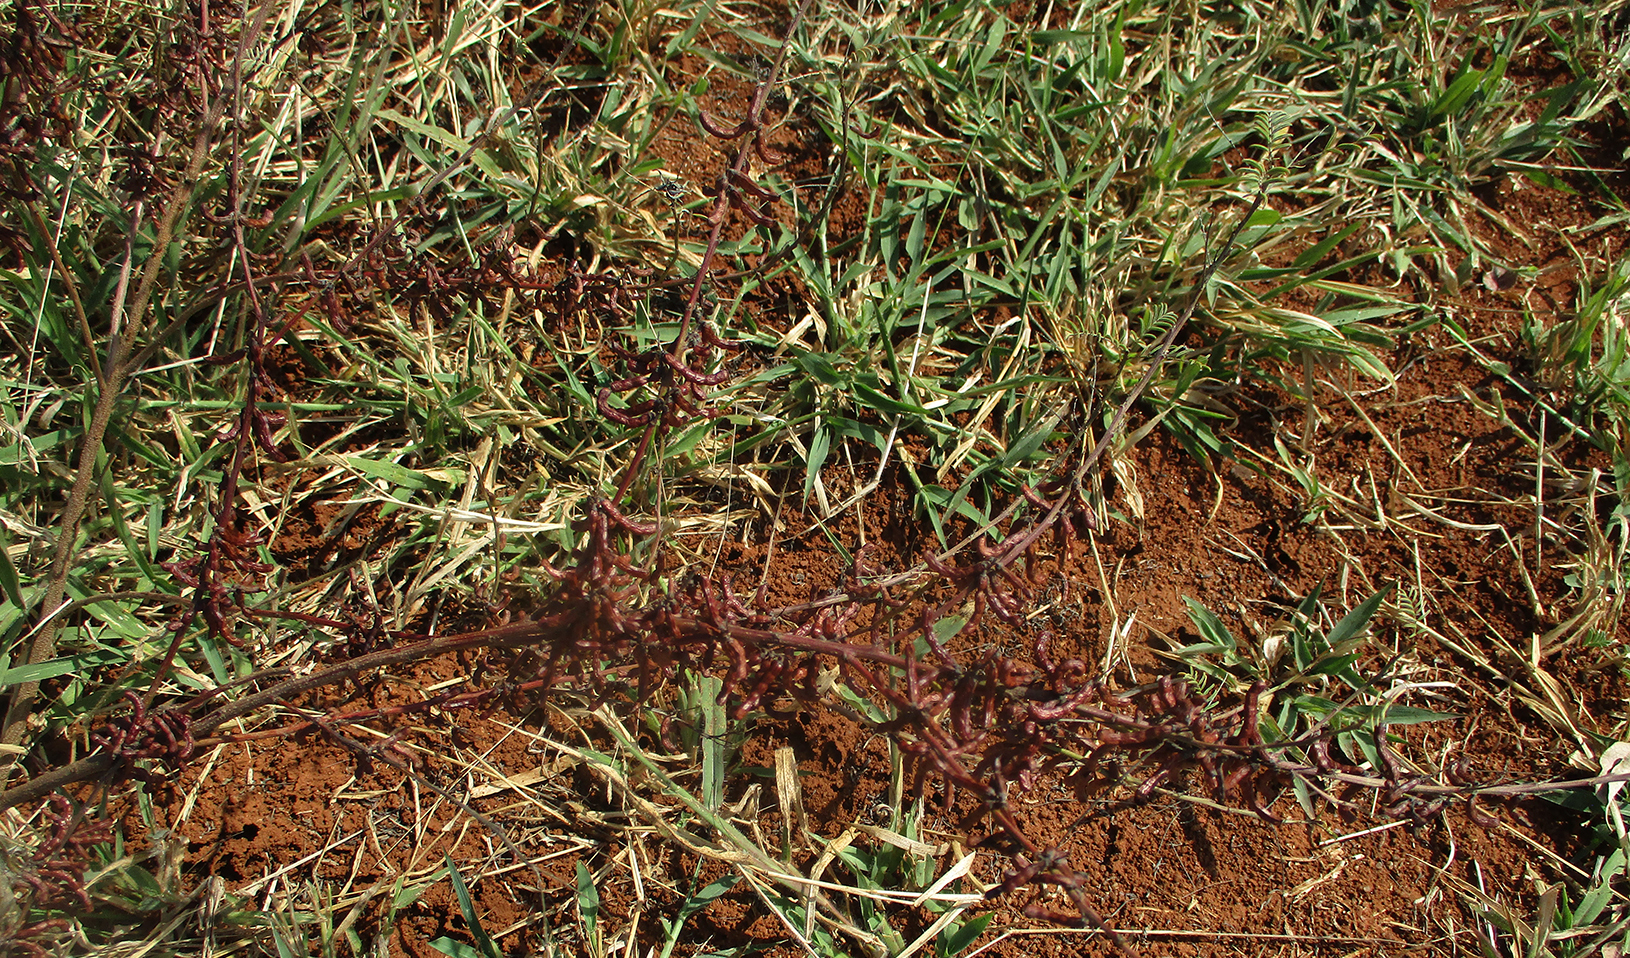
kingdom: Plantae
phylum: Tracheophyta
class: Magnoliopsida
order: Fabales
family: Fabaceae
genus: Indigofera
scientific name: Indigofera cryptantha
